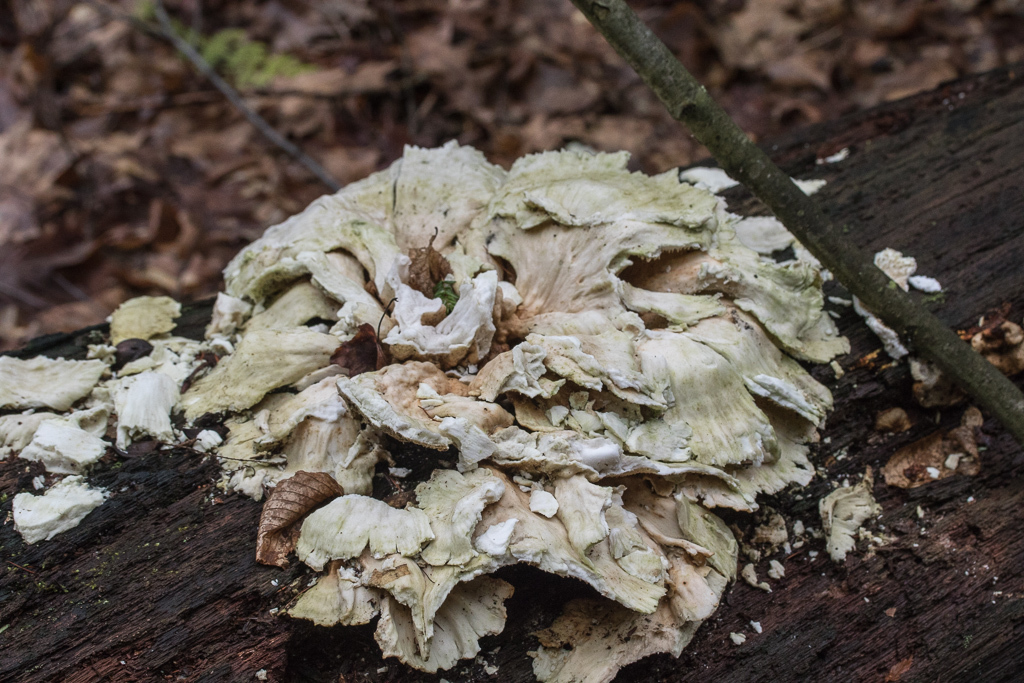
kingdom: Fungi
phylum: Basidiomycota
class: Agaricomycetes
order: Polyporales
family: Laetiporaceae
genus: Laetiporus
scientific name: Laetiporus sulphureus
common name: Chicken of the woods
